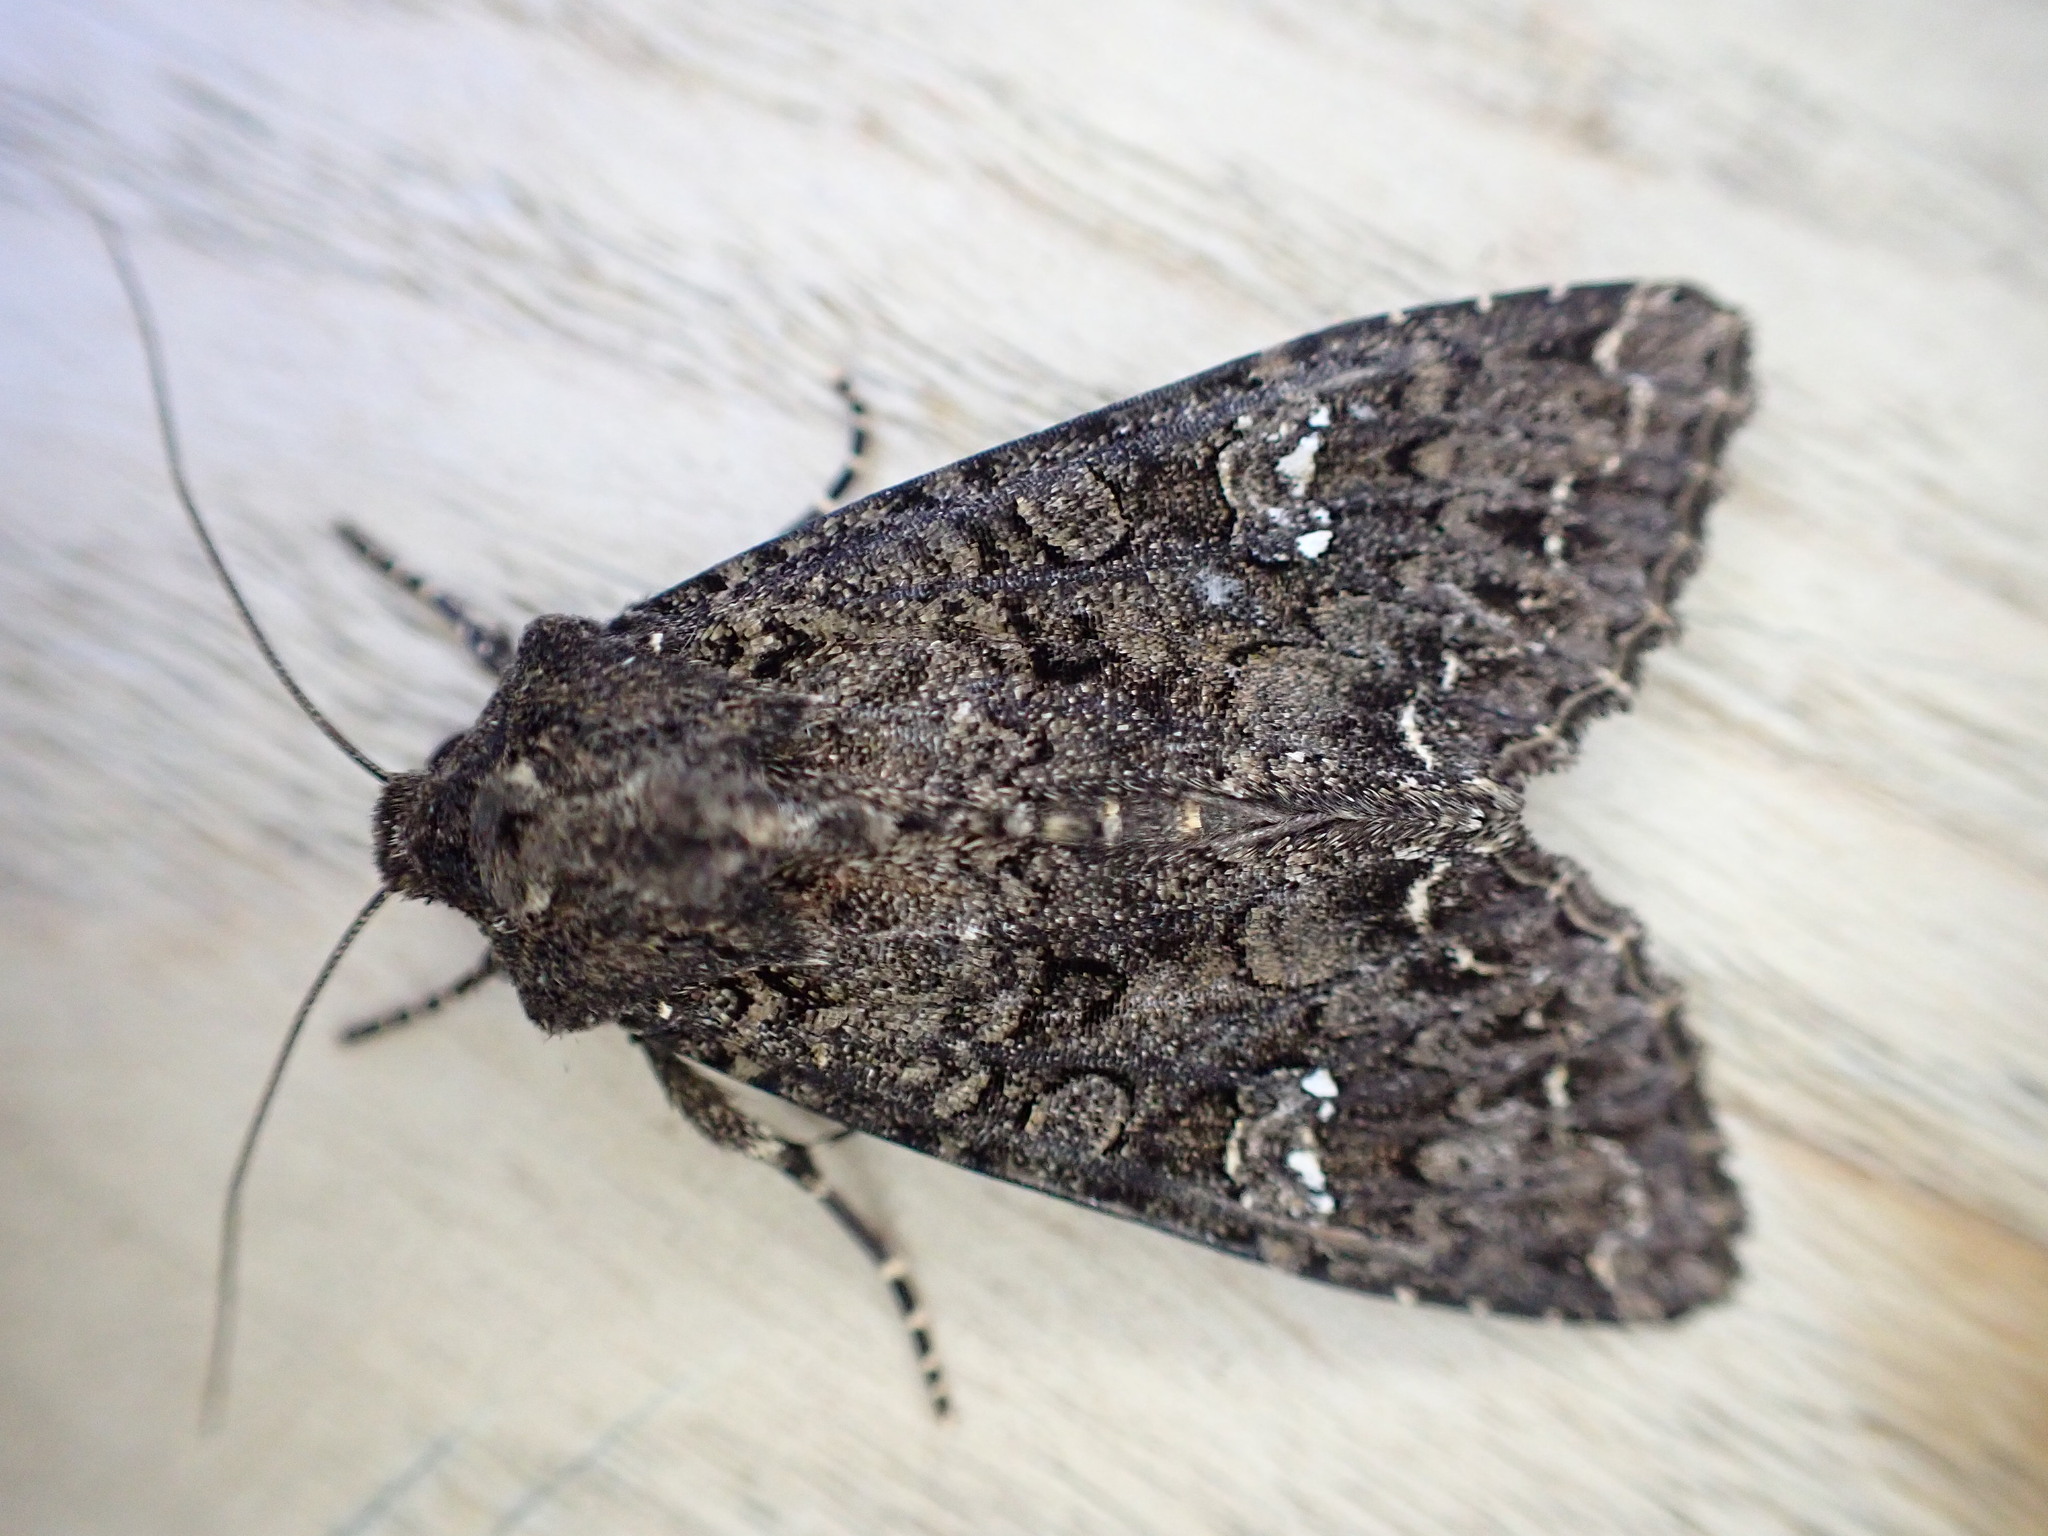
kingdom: Animalia
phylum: Arthropoda
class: Insecta
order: Lepidoptera
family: Noctuidae
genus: Mamestra
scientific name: Mamestra brassicae
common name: Cabbage moth
